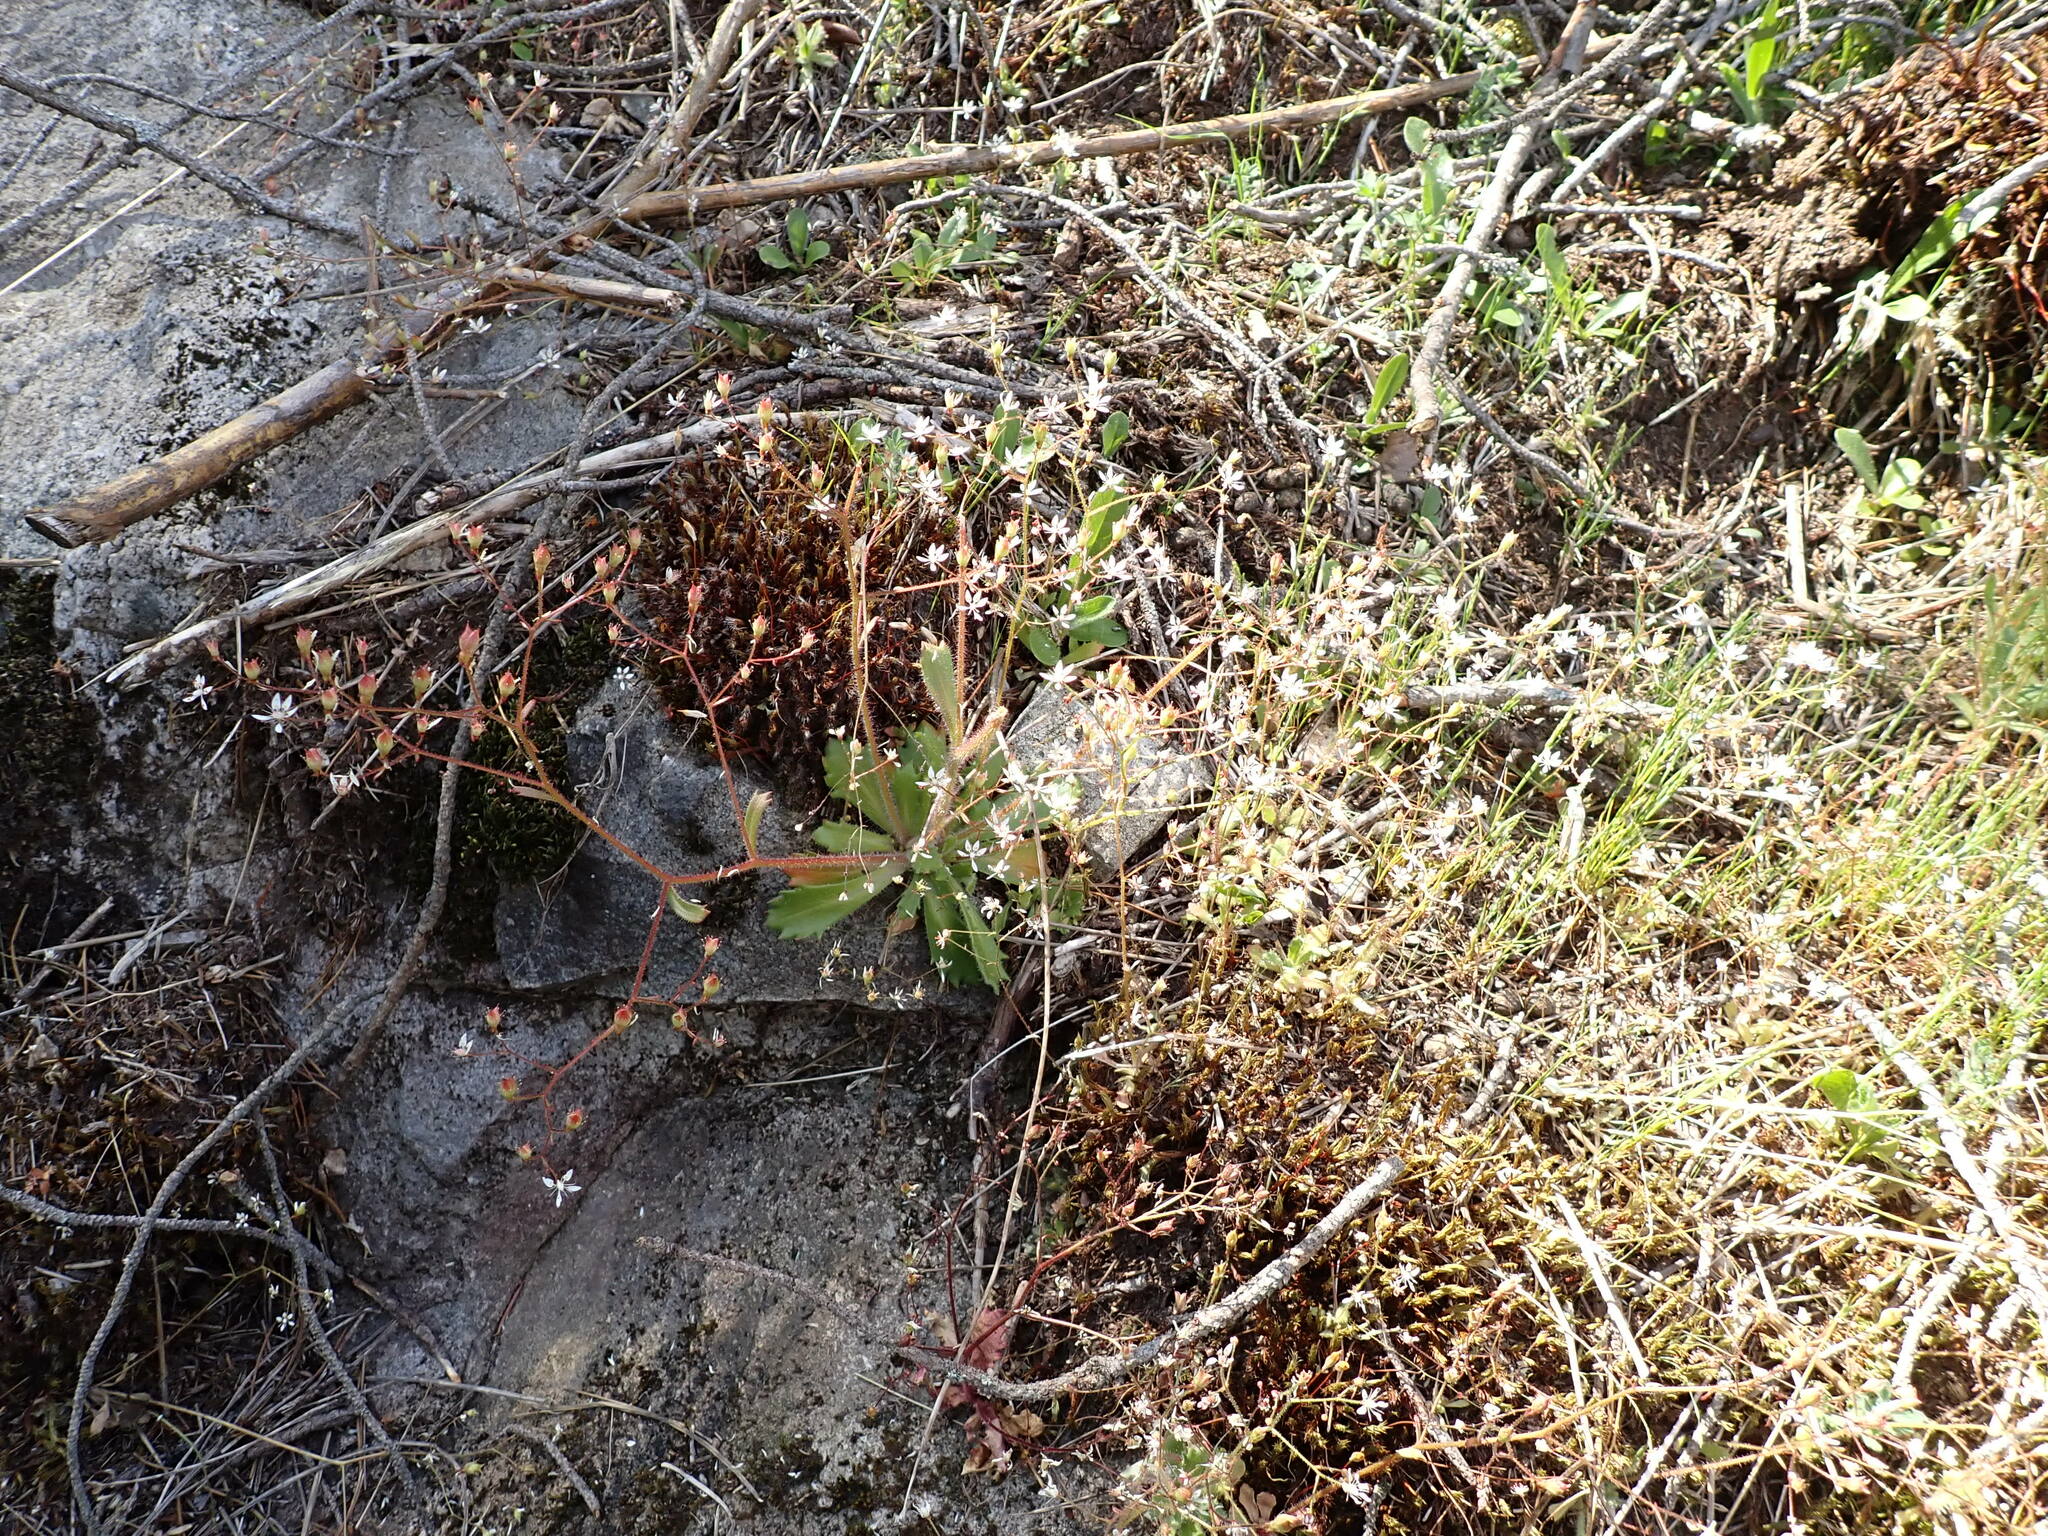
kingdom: Plantae
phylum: Tracheophyta
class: Magnoliopsida
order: Saxifragales
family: Saxifragaceae
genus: Micranthes
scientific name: Micranthes ferruginea
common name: Rusty saxifrage
